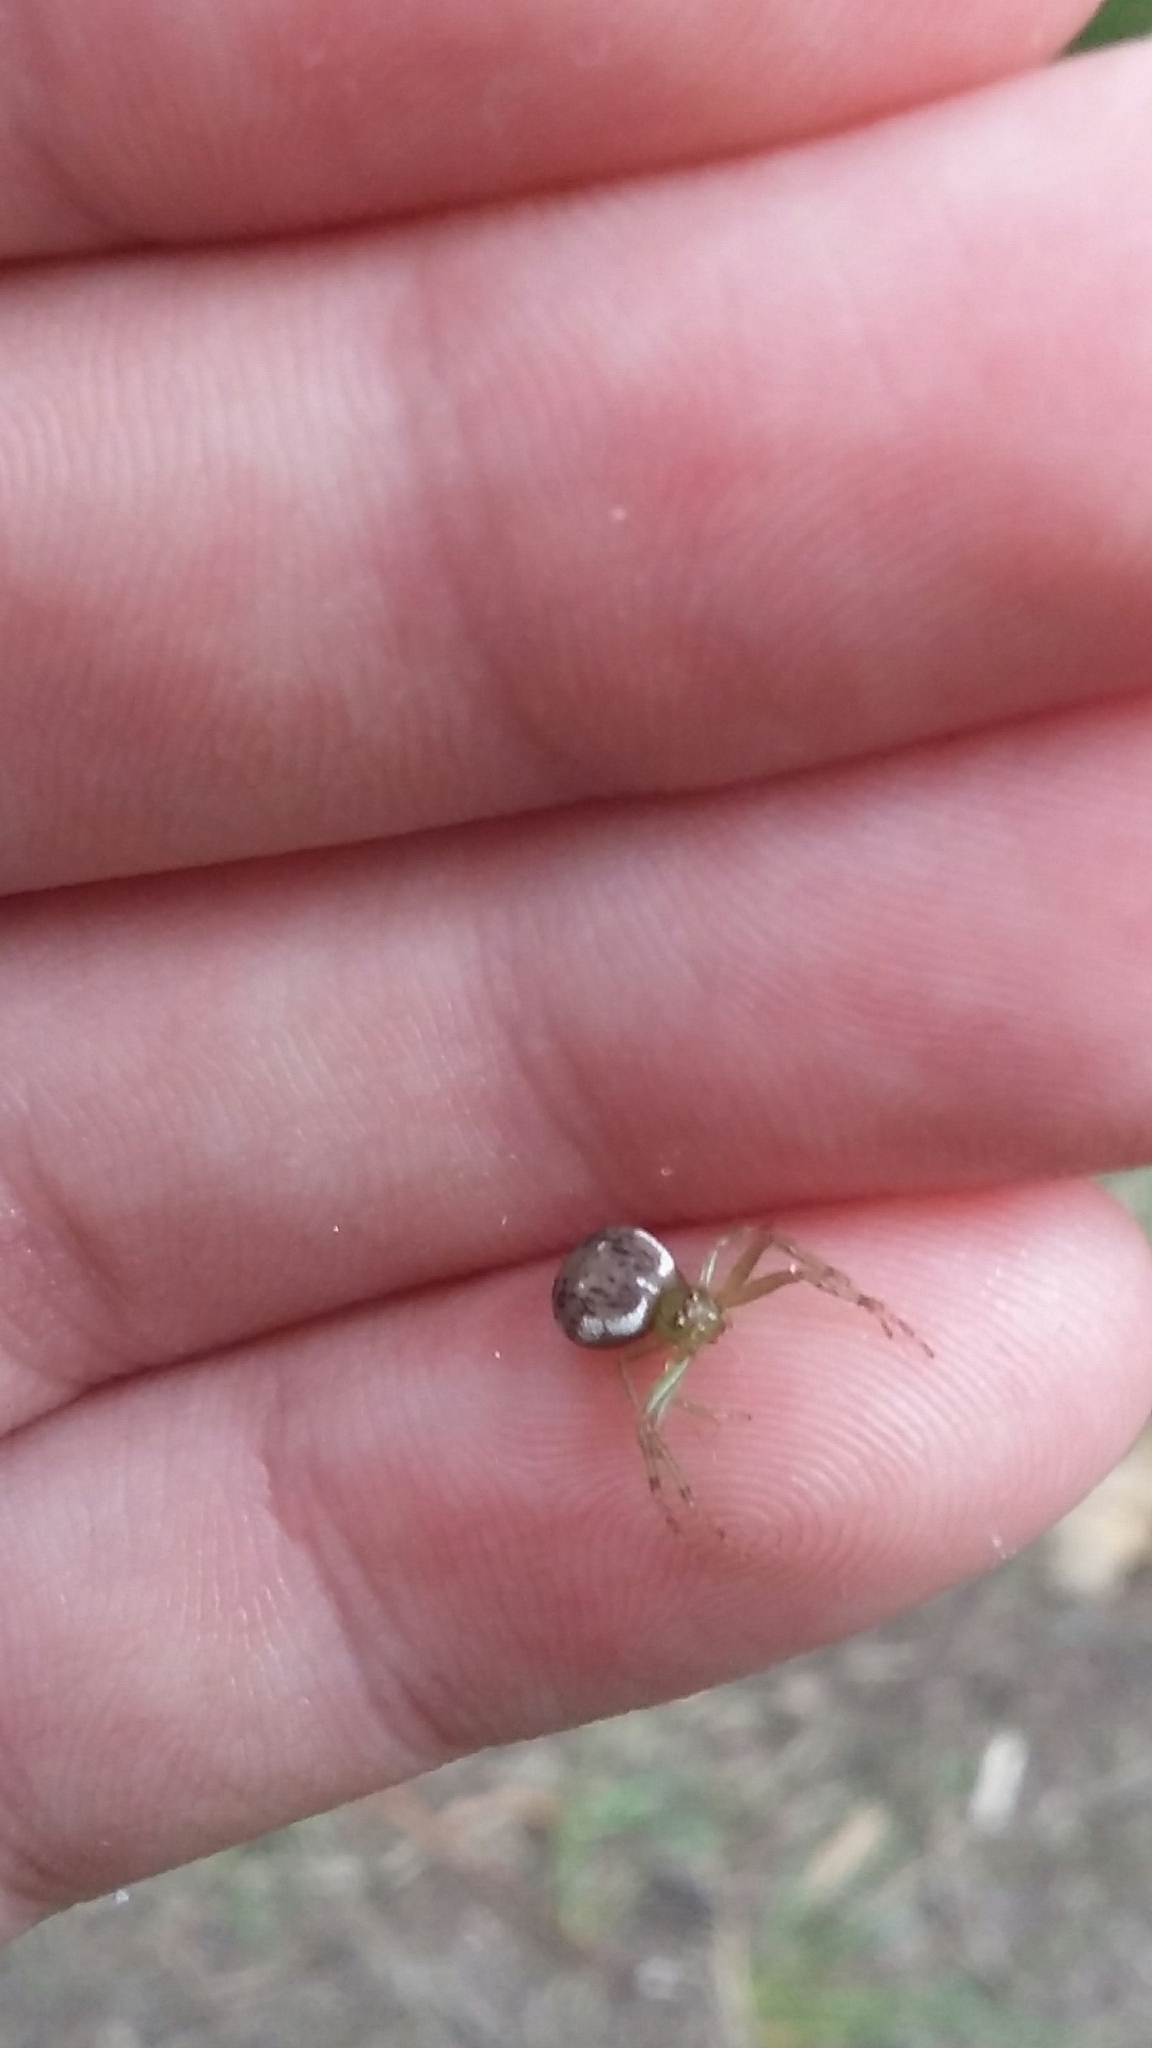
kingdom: Animalia
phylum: Arthropoda
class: Arachnida
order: Araneae
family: Thomisidae
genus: Diaea
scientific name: Diaea ambara
